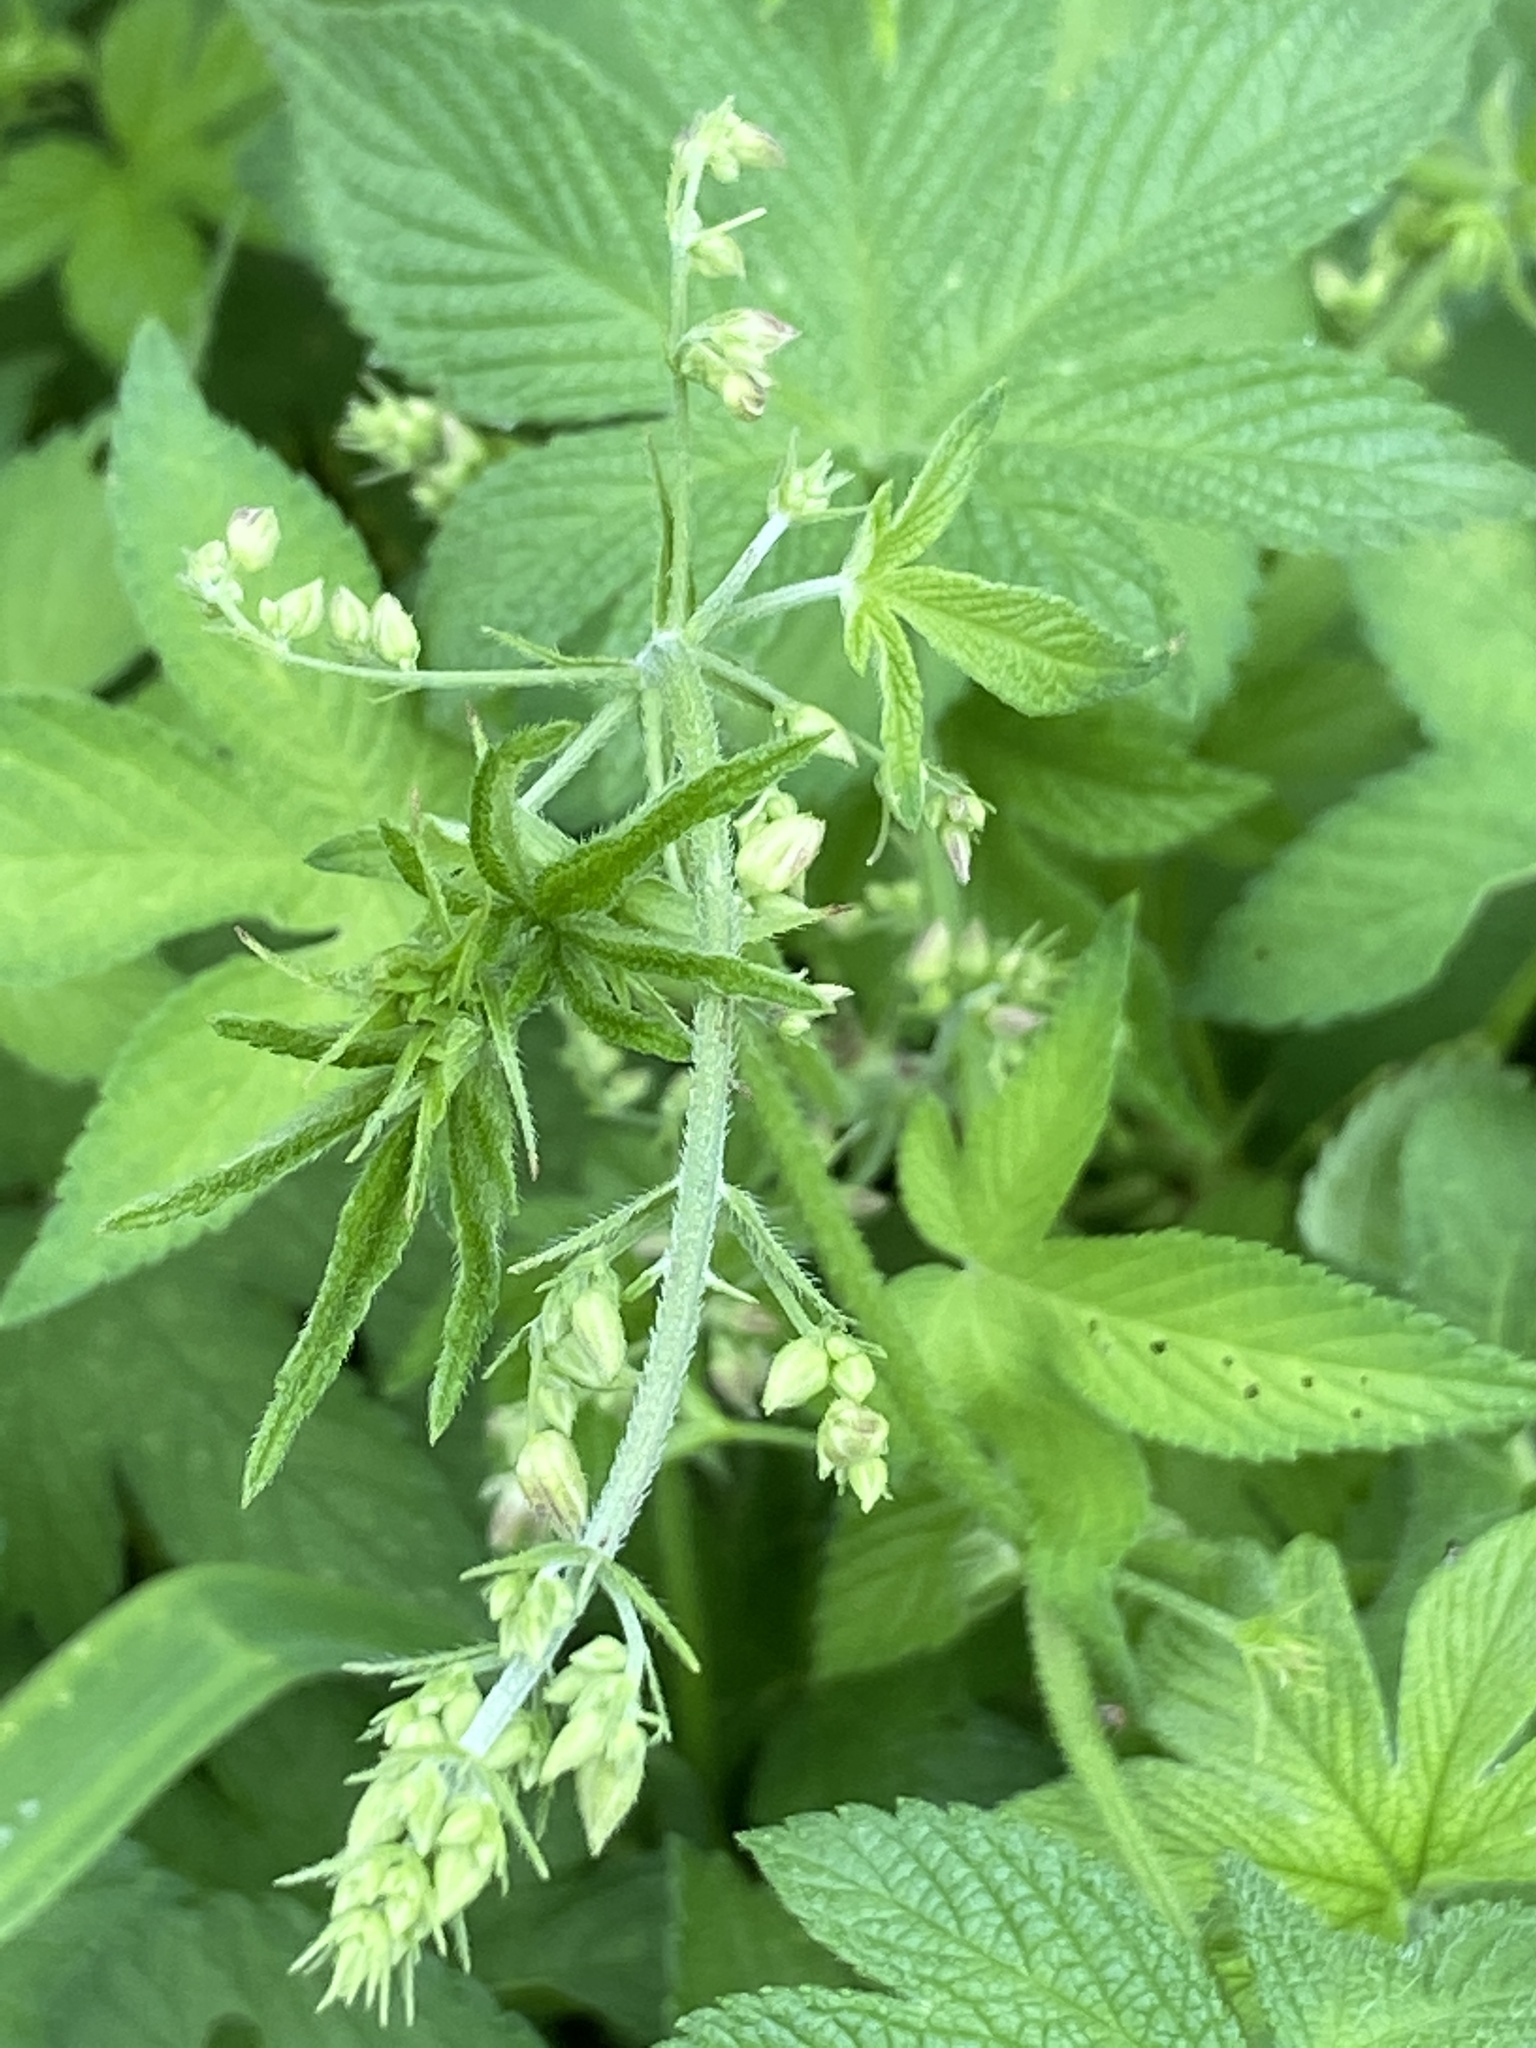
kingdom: Plantae
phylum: Tracheophyta
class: Magnoliopsida
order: Rosales
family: Cannabaceae
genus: Humulus
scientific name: Humulus scandens
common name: Japanese hop
